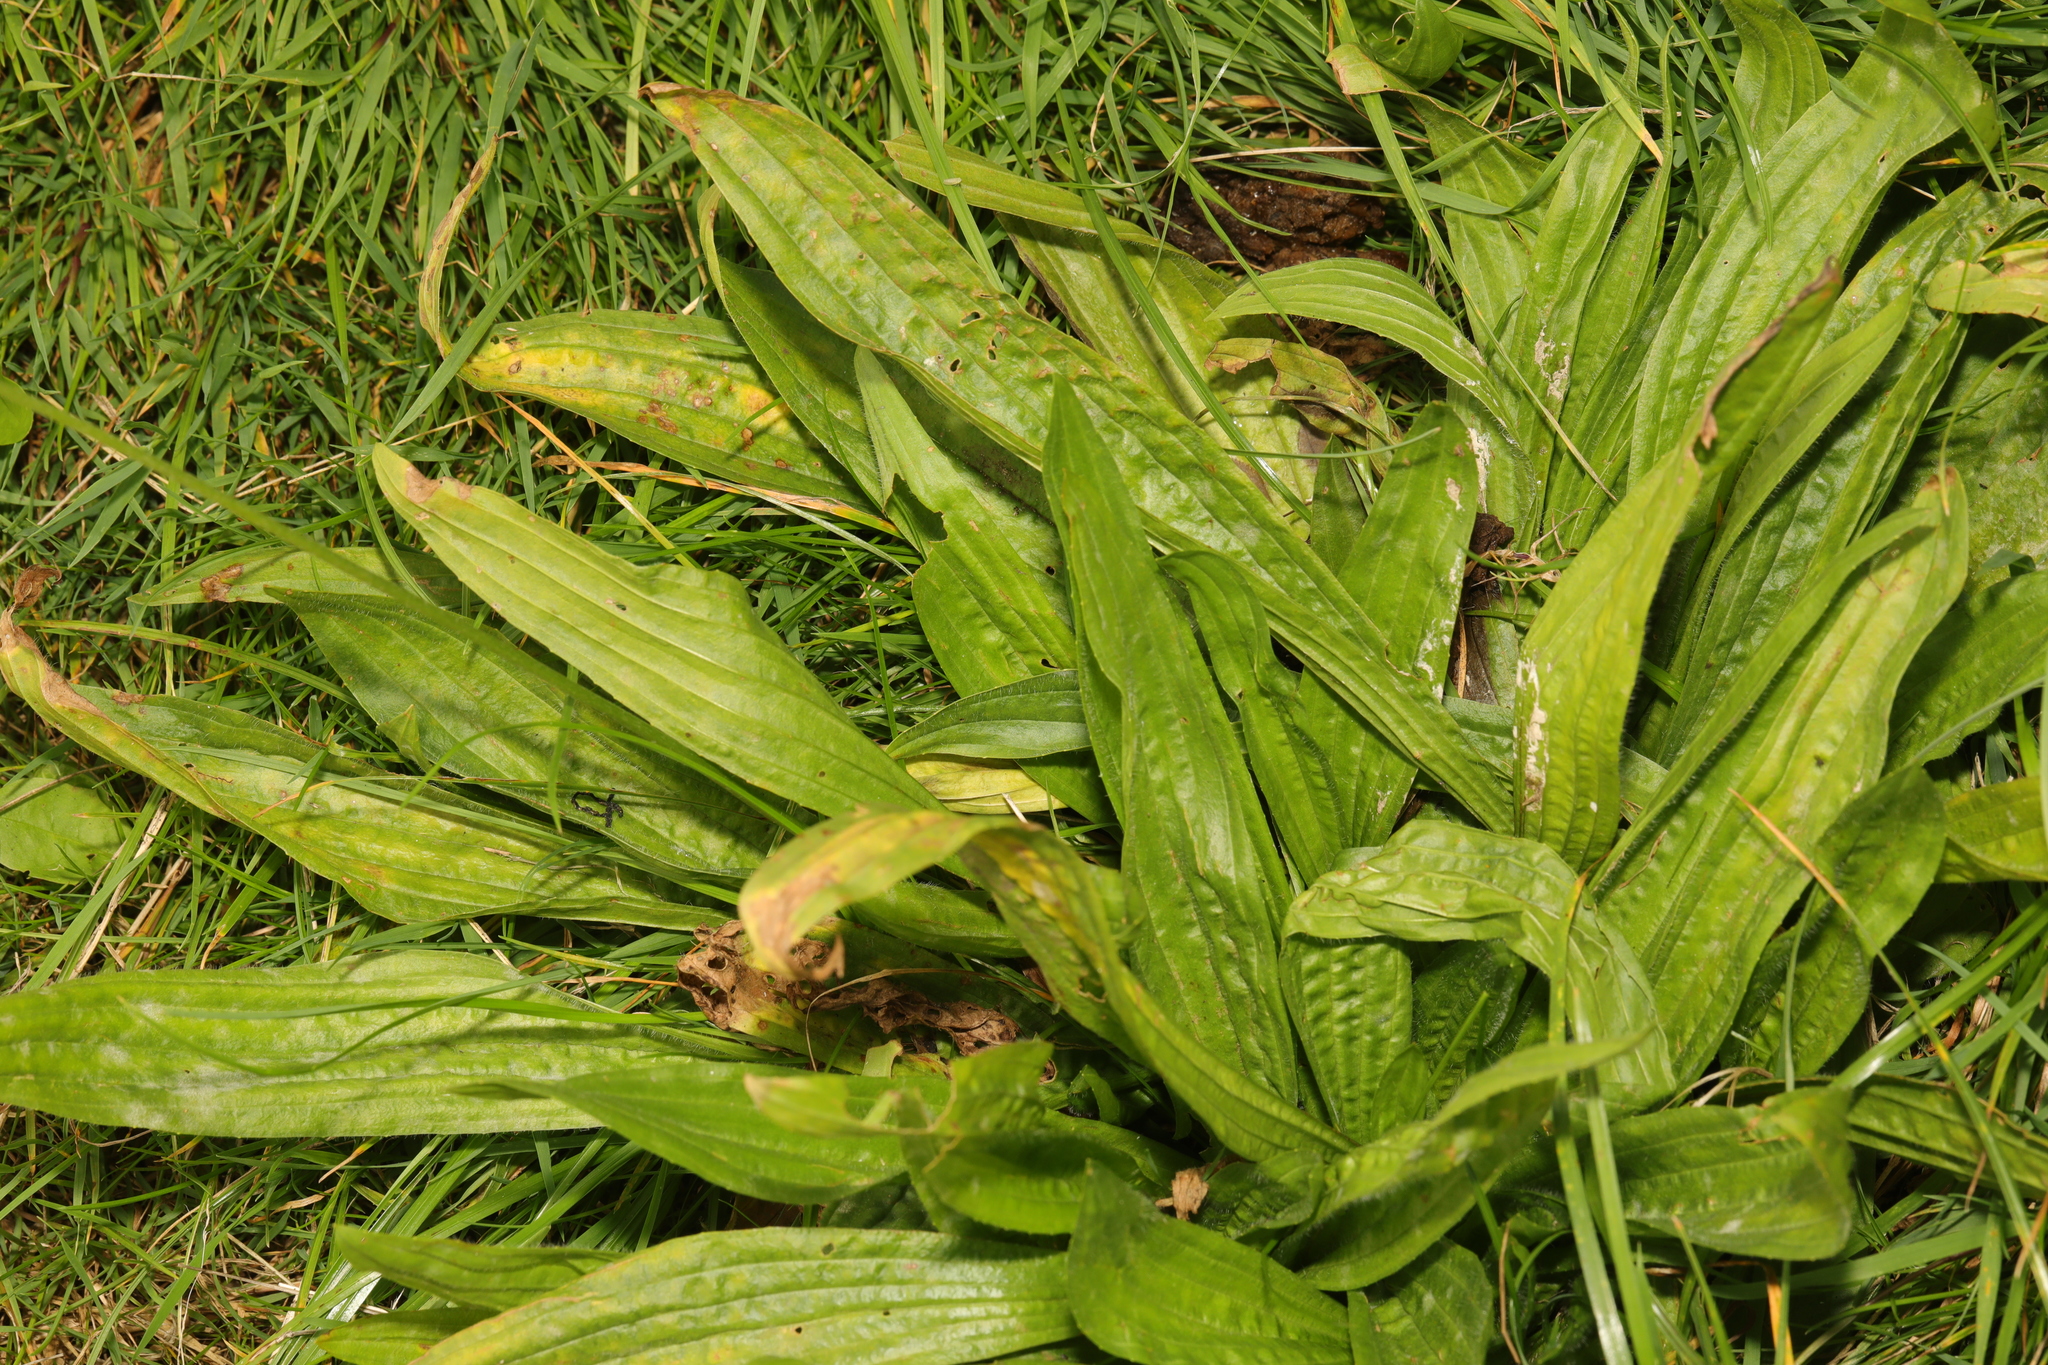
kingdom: Plantae
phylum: Tracheophyta
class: Magnoliopsida
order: Lamiales
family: Plantaginaceae
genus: Plantago
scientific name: Plantago lanceolata
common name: Ribwort plantain
